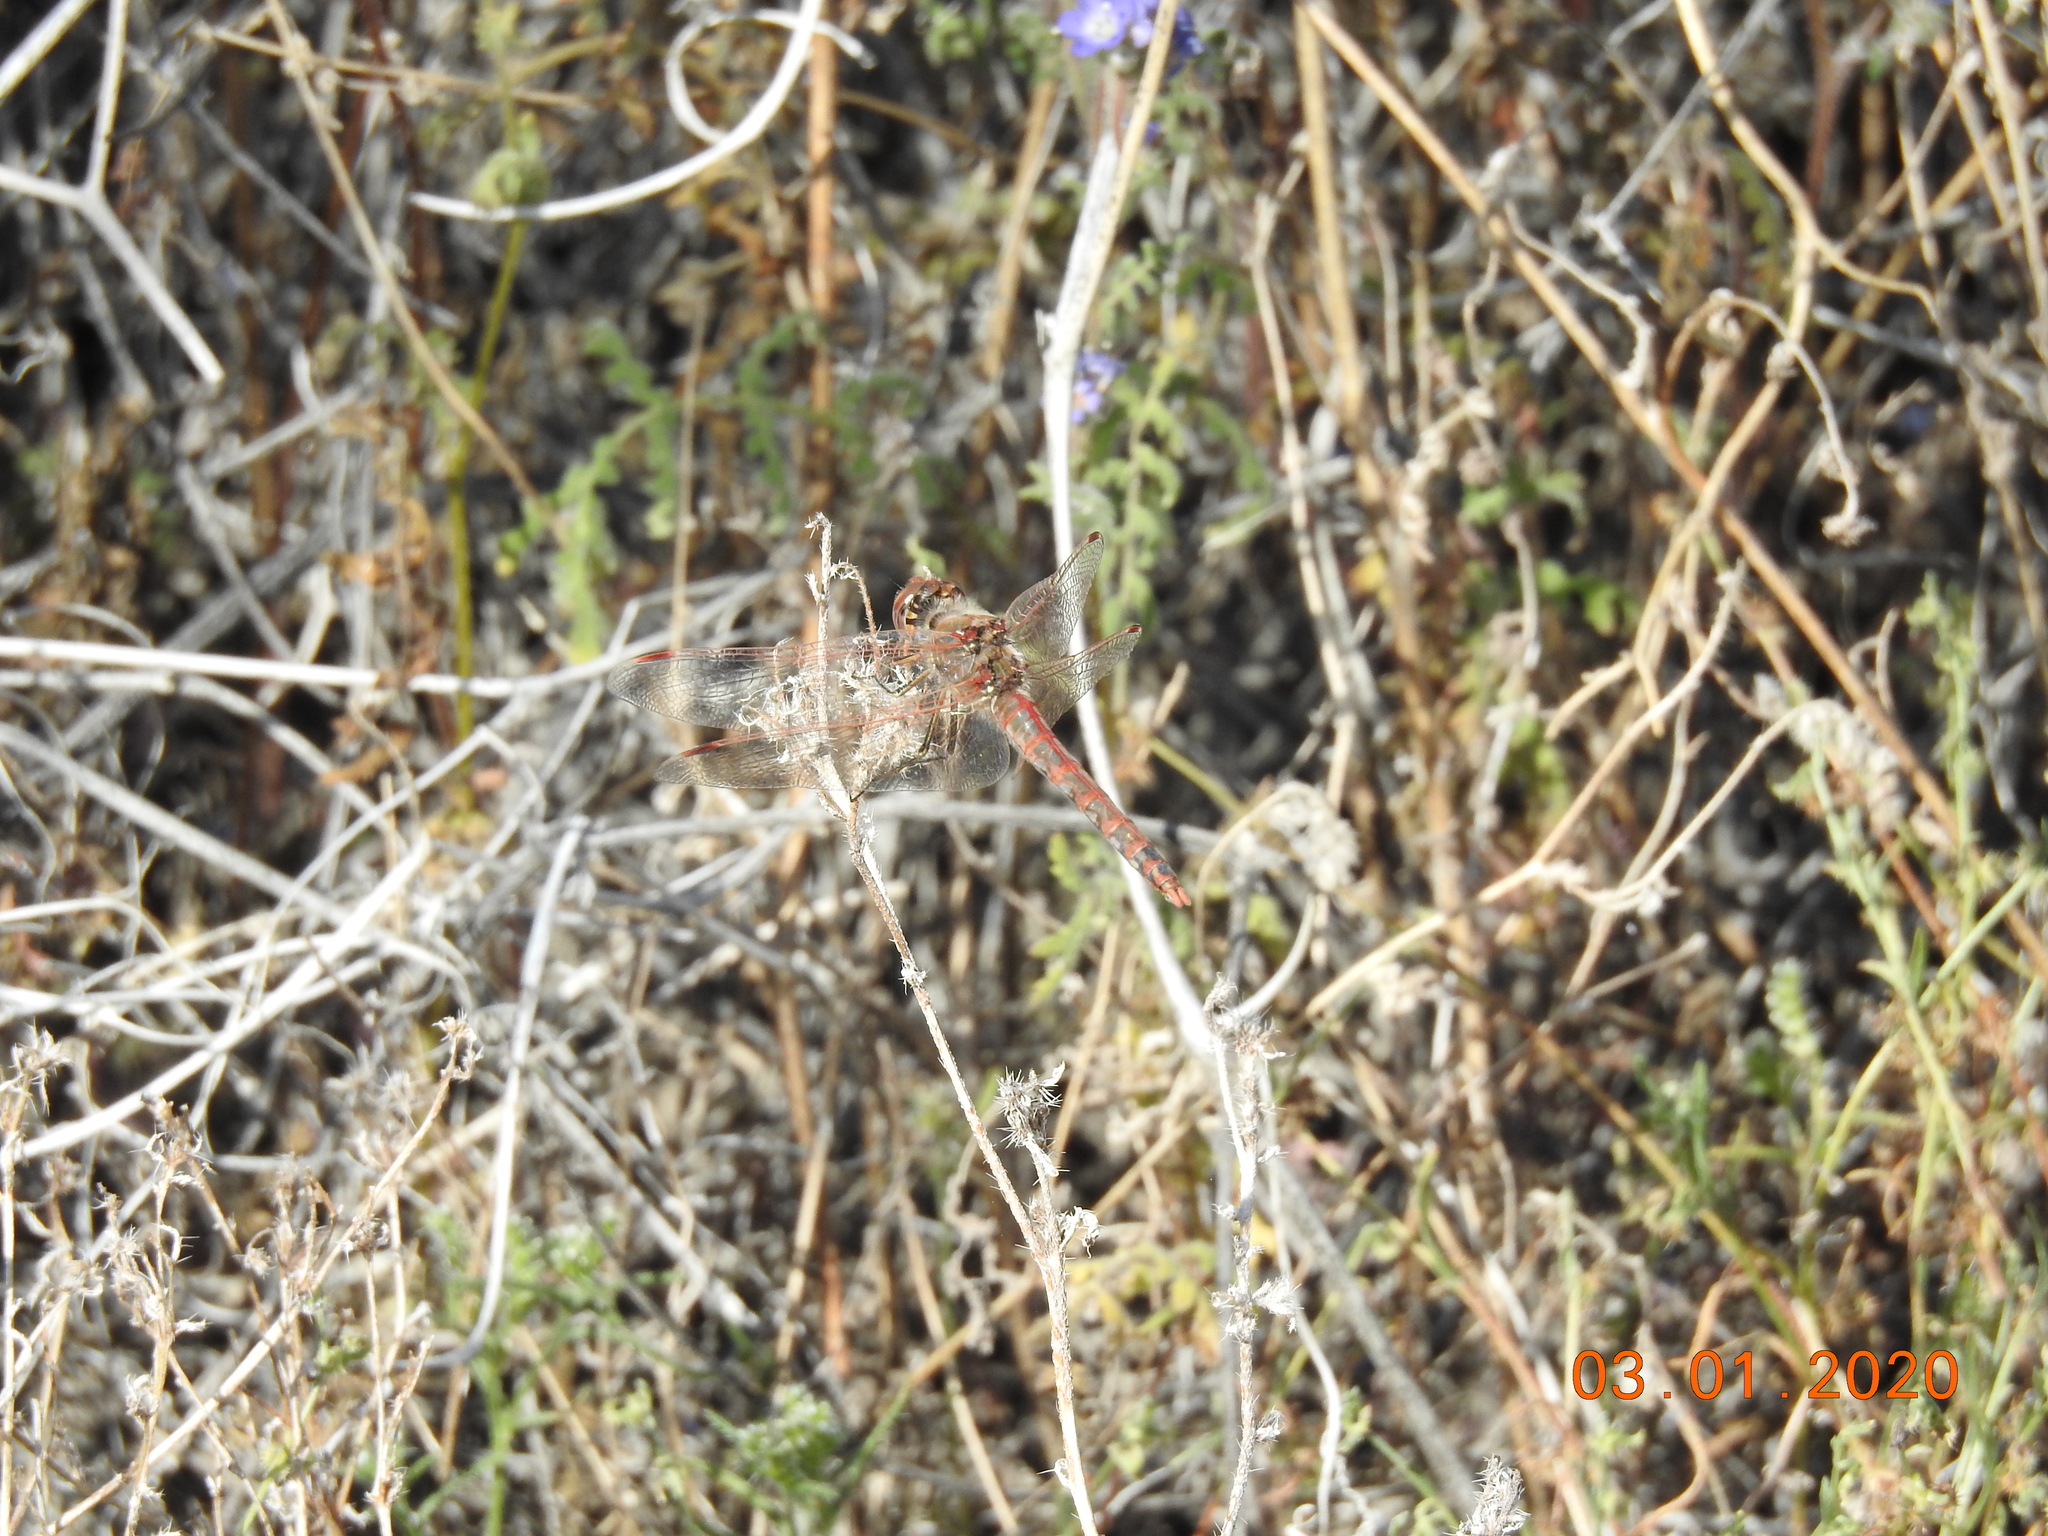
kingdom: Animalia
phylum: Arthropoda
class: Insecta
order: Odonata
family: Libellulidae
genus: Sympetrum
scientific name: Sympetrum corruptum
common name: Variegated meadowhawk
